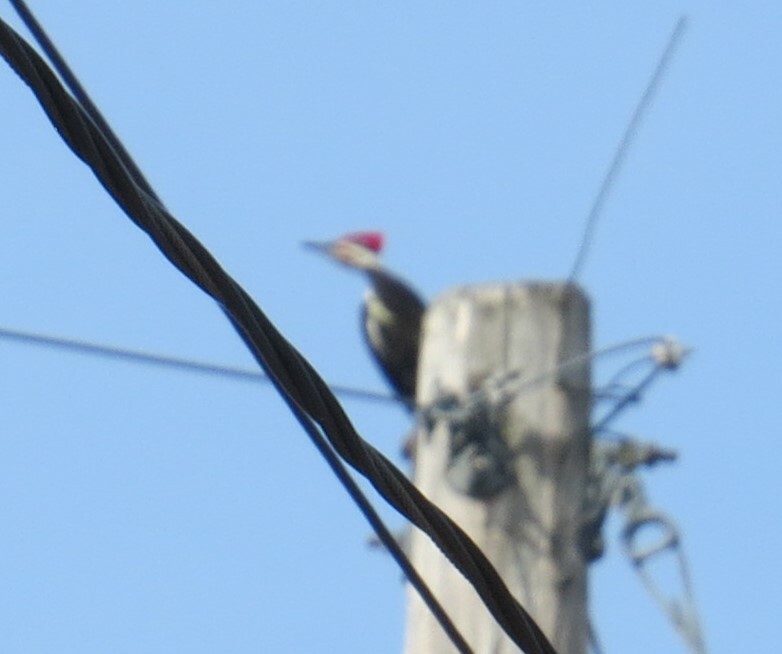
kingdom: Animalia
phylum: Chordata
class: Aves
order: Piciformes
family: Picidae
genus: Dryocopus
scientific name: Dryocopus pileatus
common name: Pileated woodpecker
